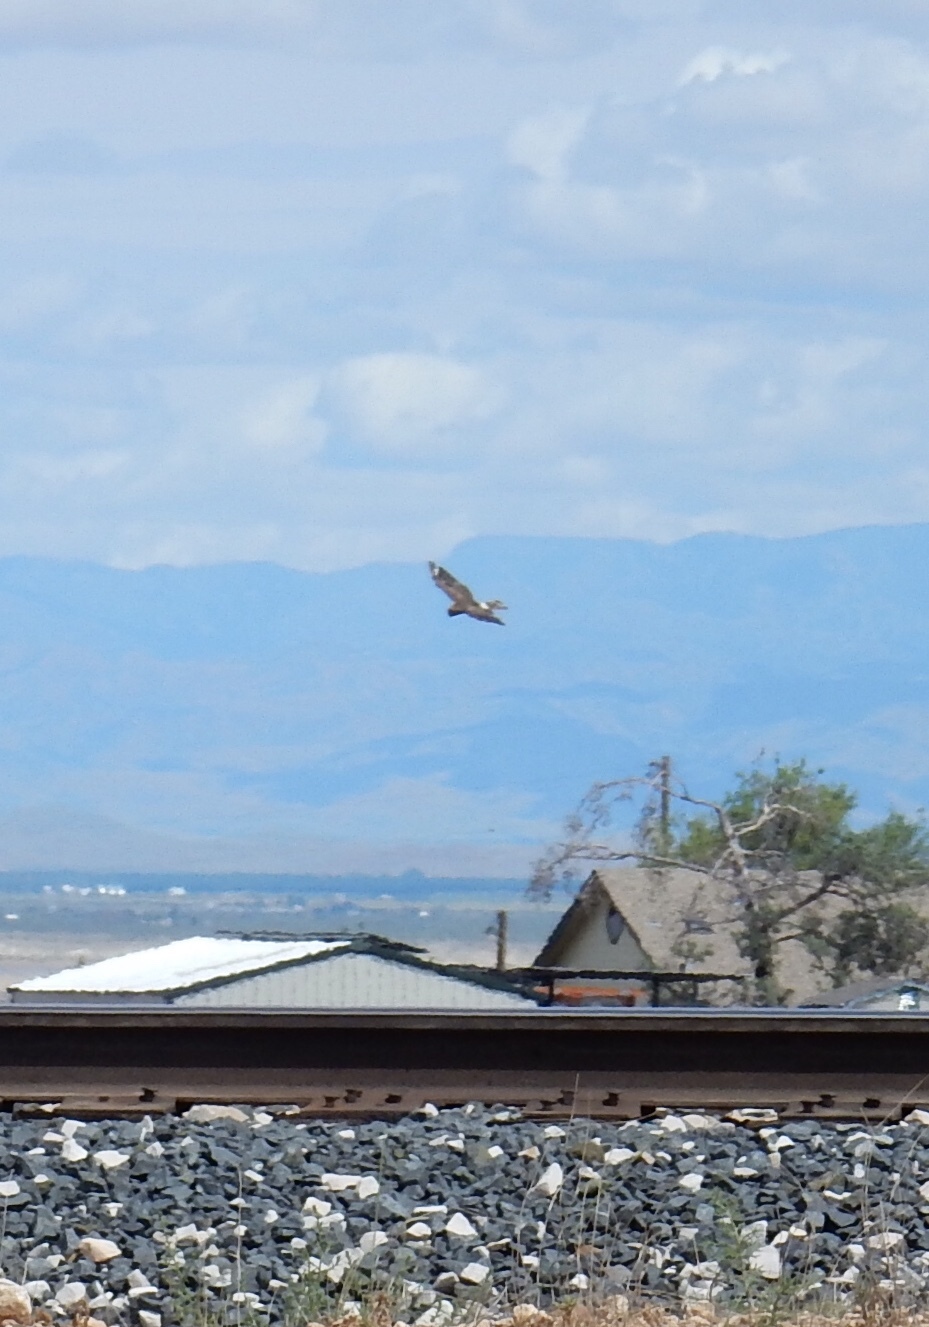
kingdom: Animalia
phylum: Chordata
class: Aves
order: Accipitriformes
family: Accipitridae
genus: Circus
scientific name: Circus cyaneus
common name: Hen harrier
